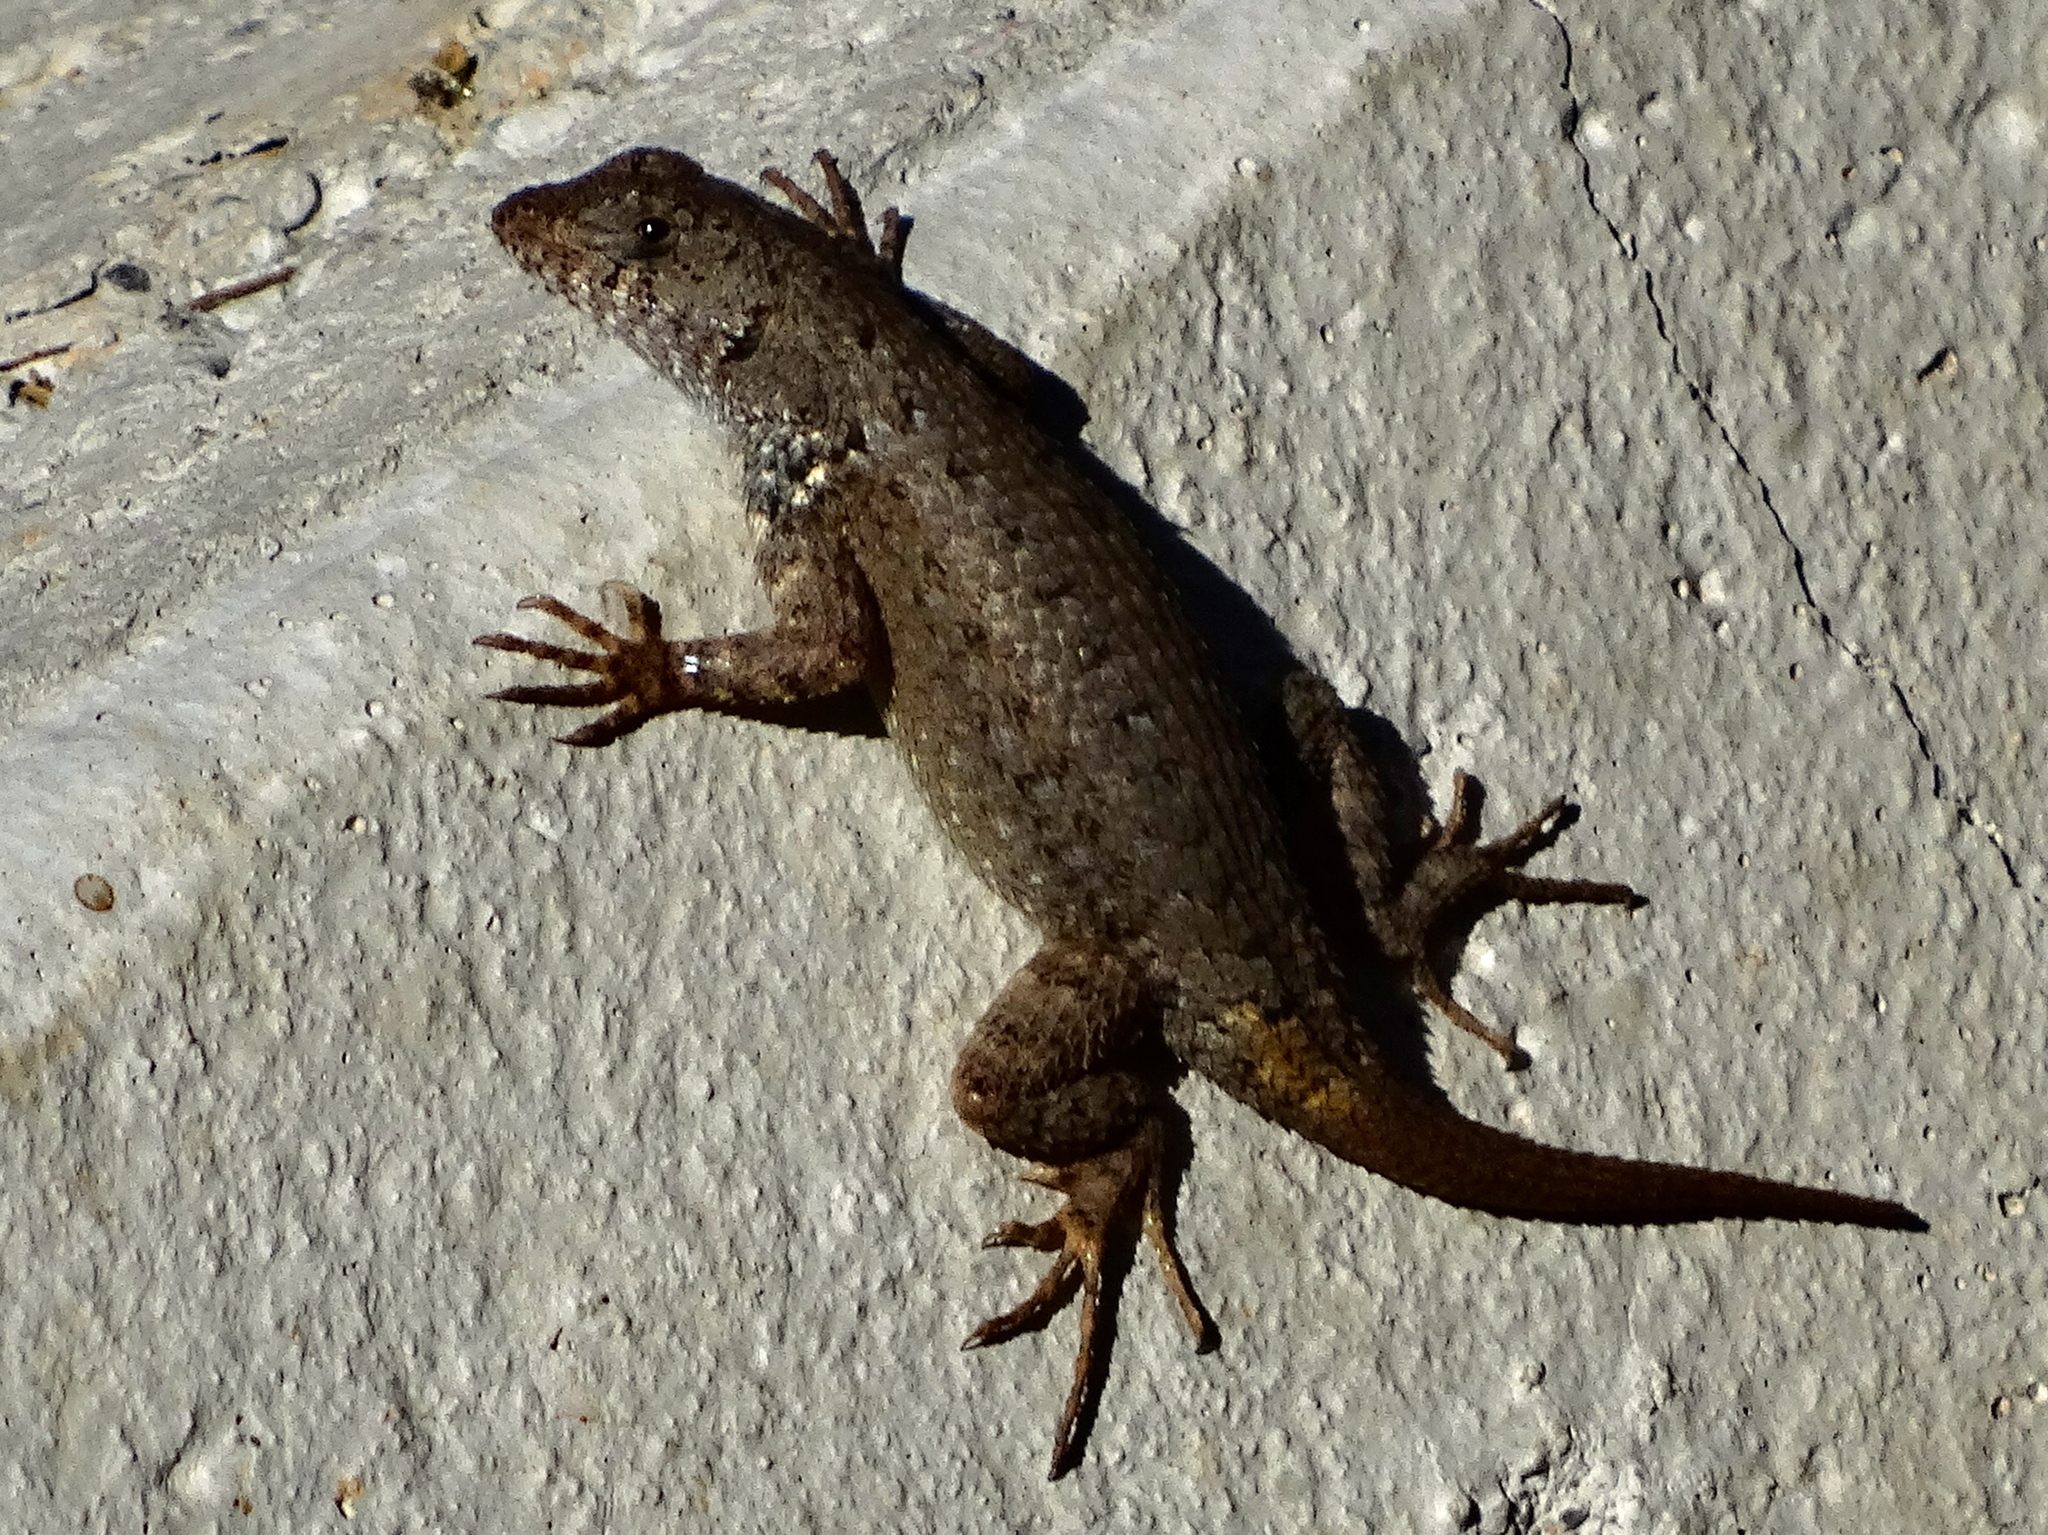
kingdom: Animalia
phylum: Chordata
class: Squamata
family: Phrynosomatidae
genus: Sceloporus
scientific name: Sceloporus nelsoni
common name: Nelson's spiny lizard
